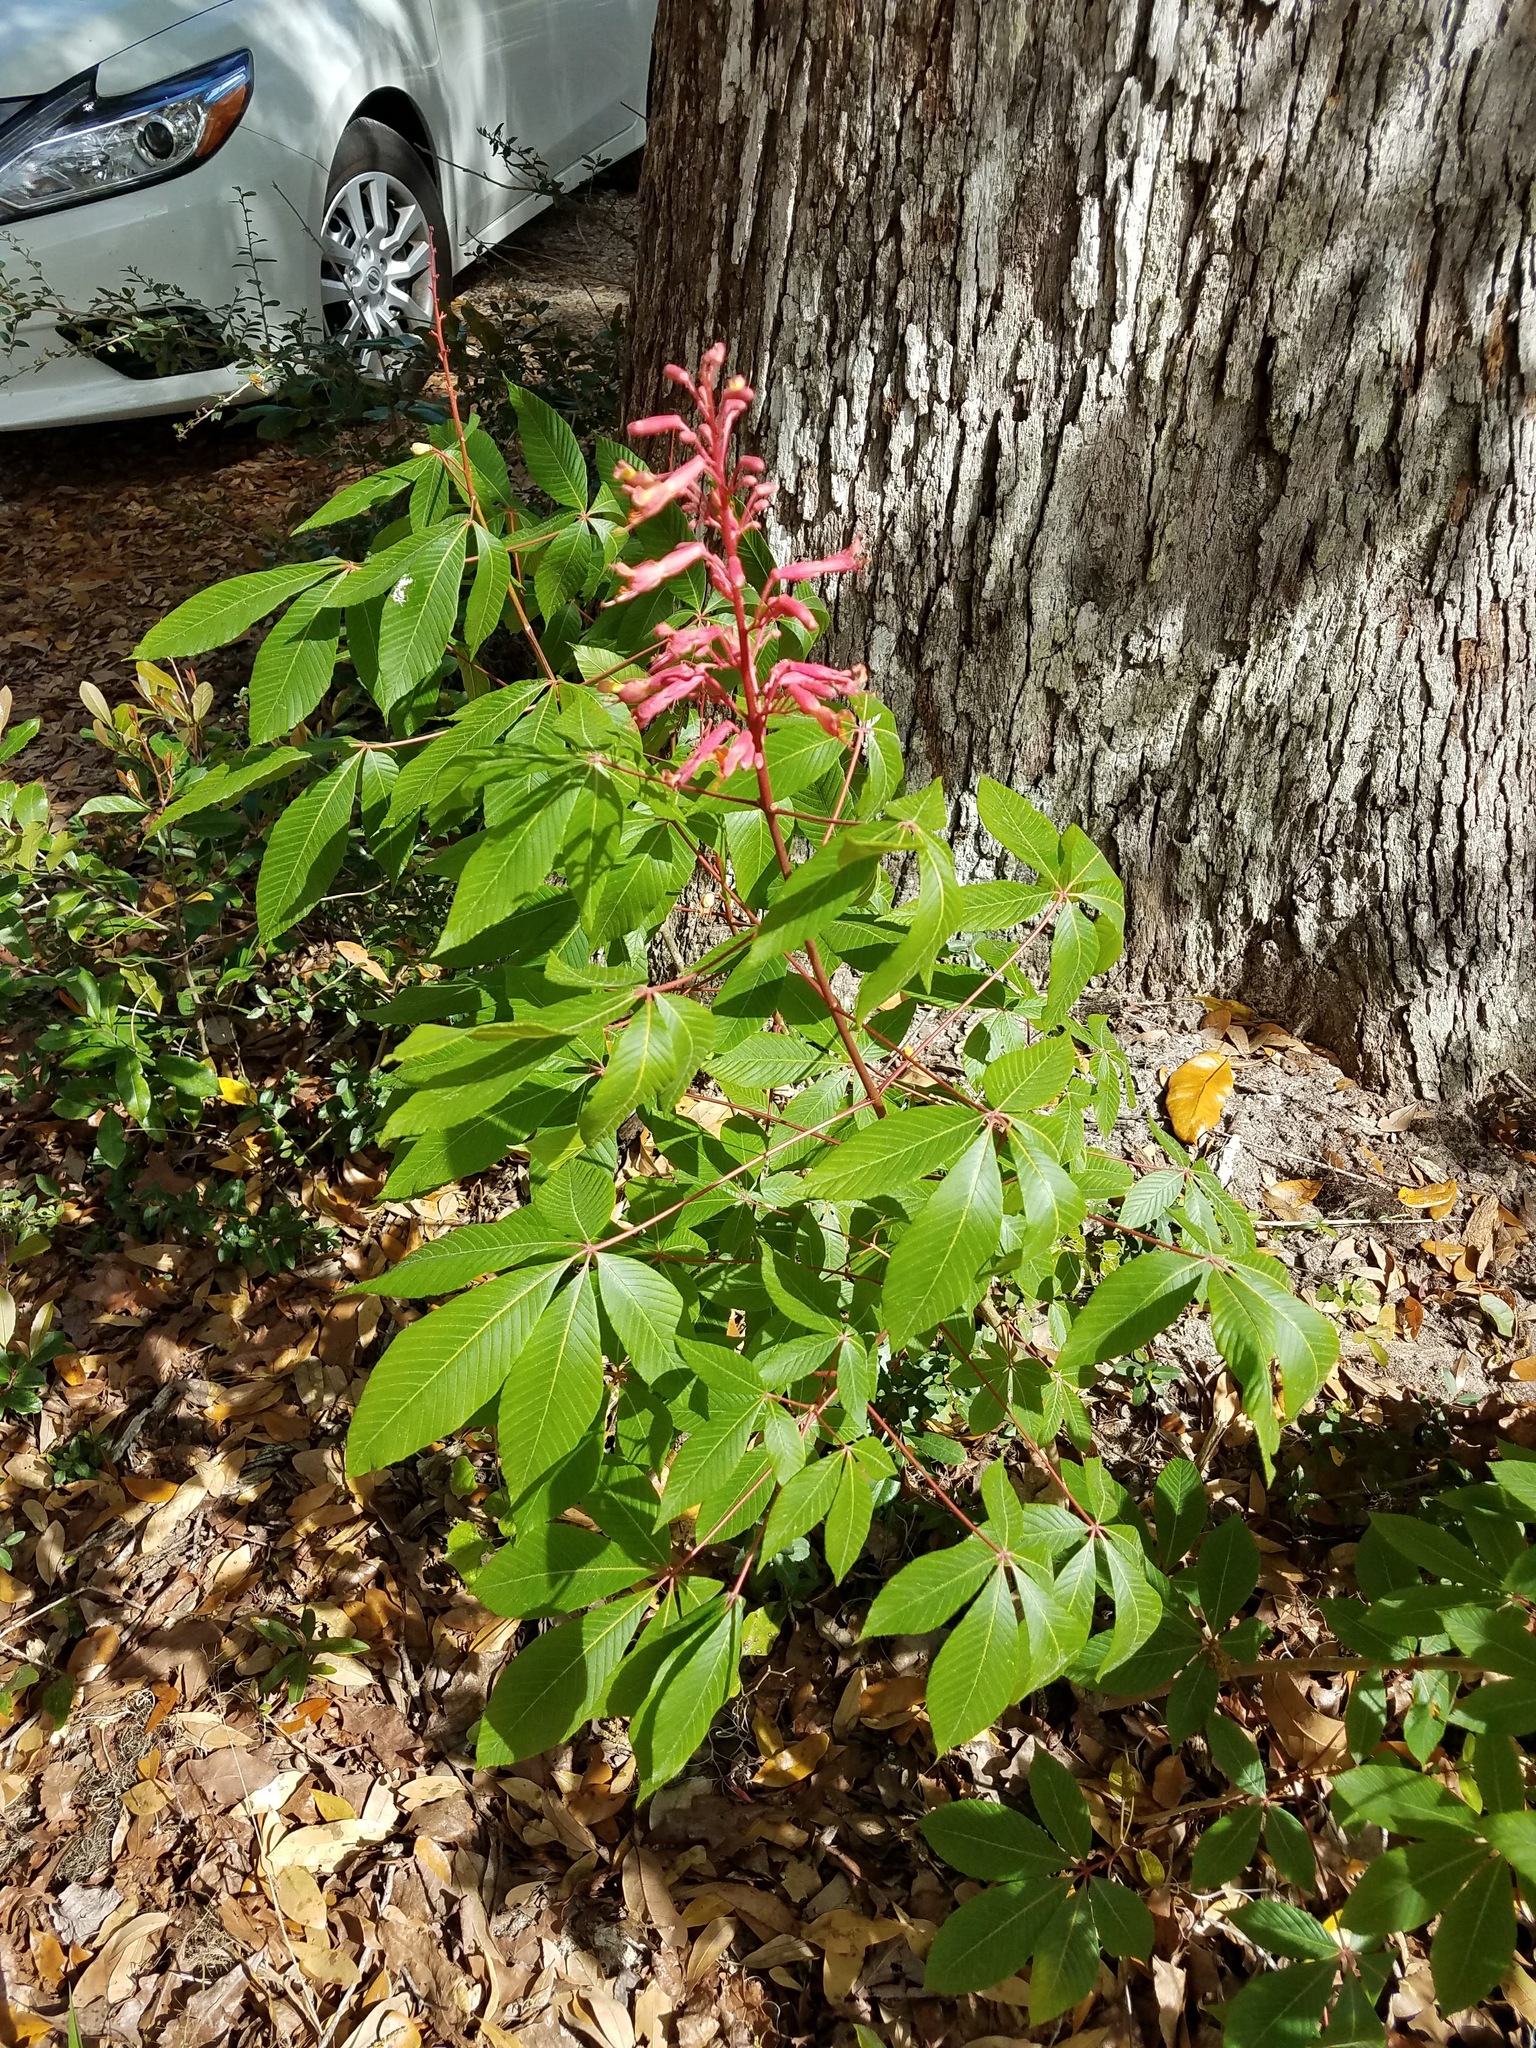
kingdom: Plantae
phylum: Tracheophyta
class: Magnoliopsida
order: Sapindales
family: Sapindaceae
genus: Aesculus
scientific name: Aesculus pavia
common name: Red buckeye
